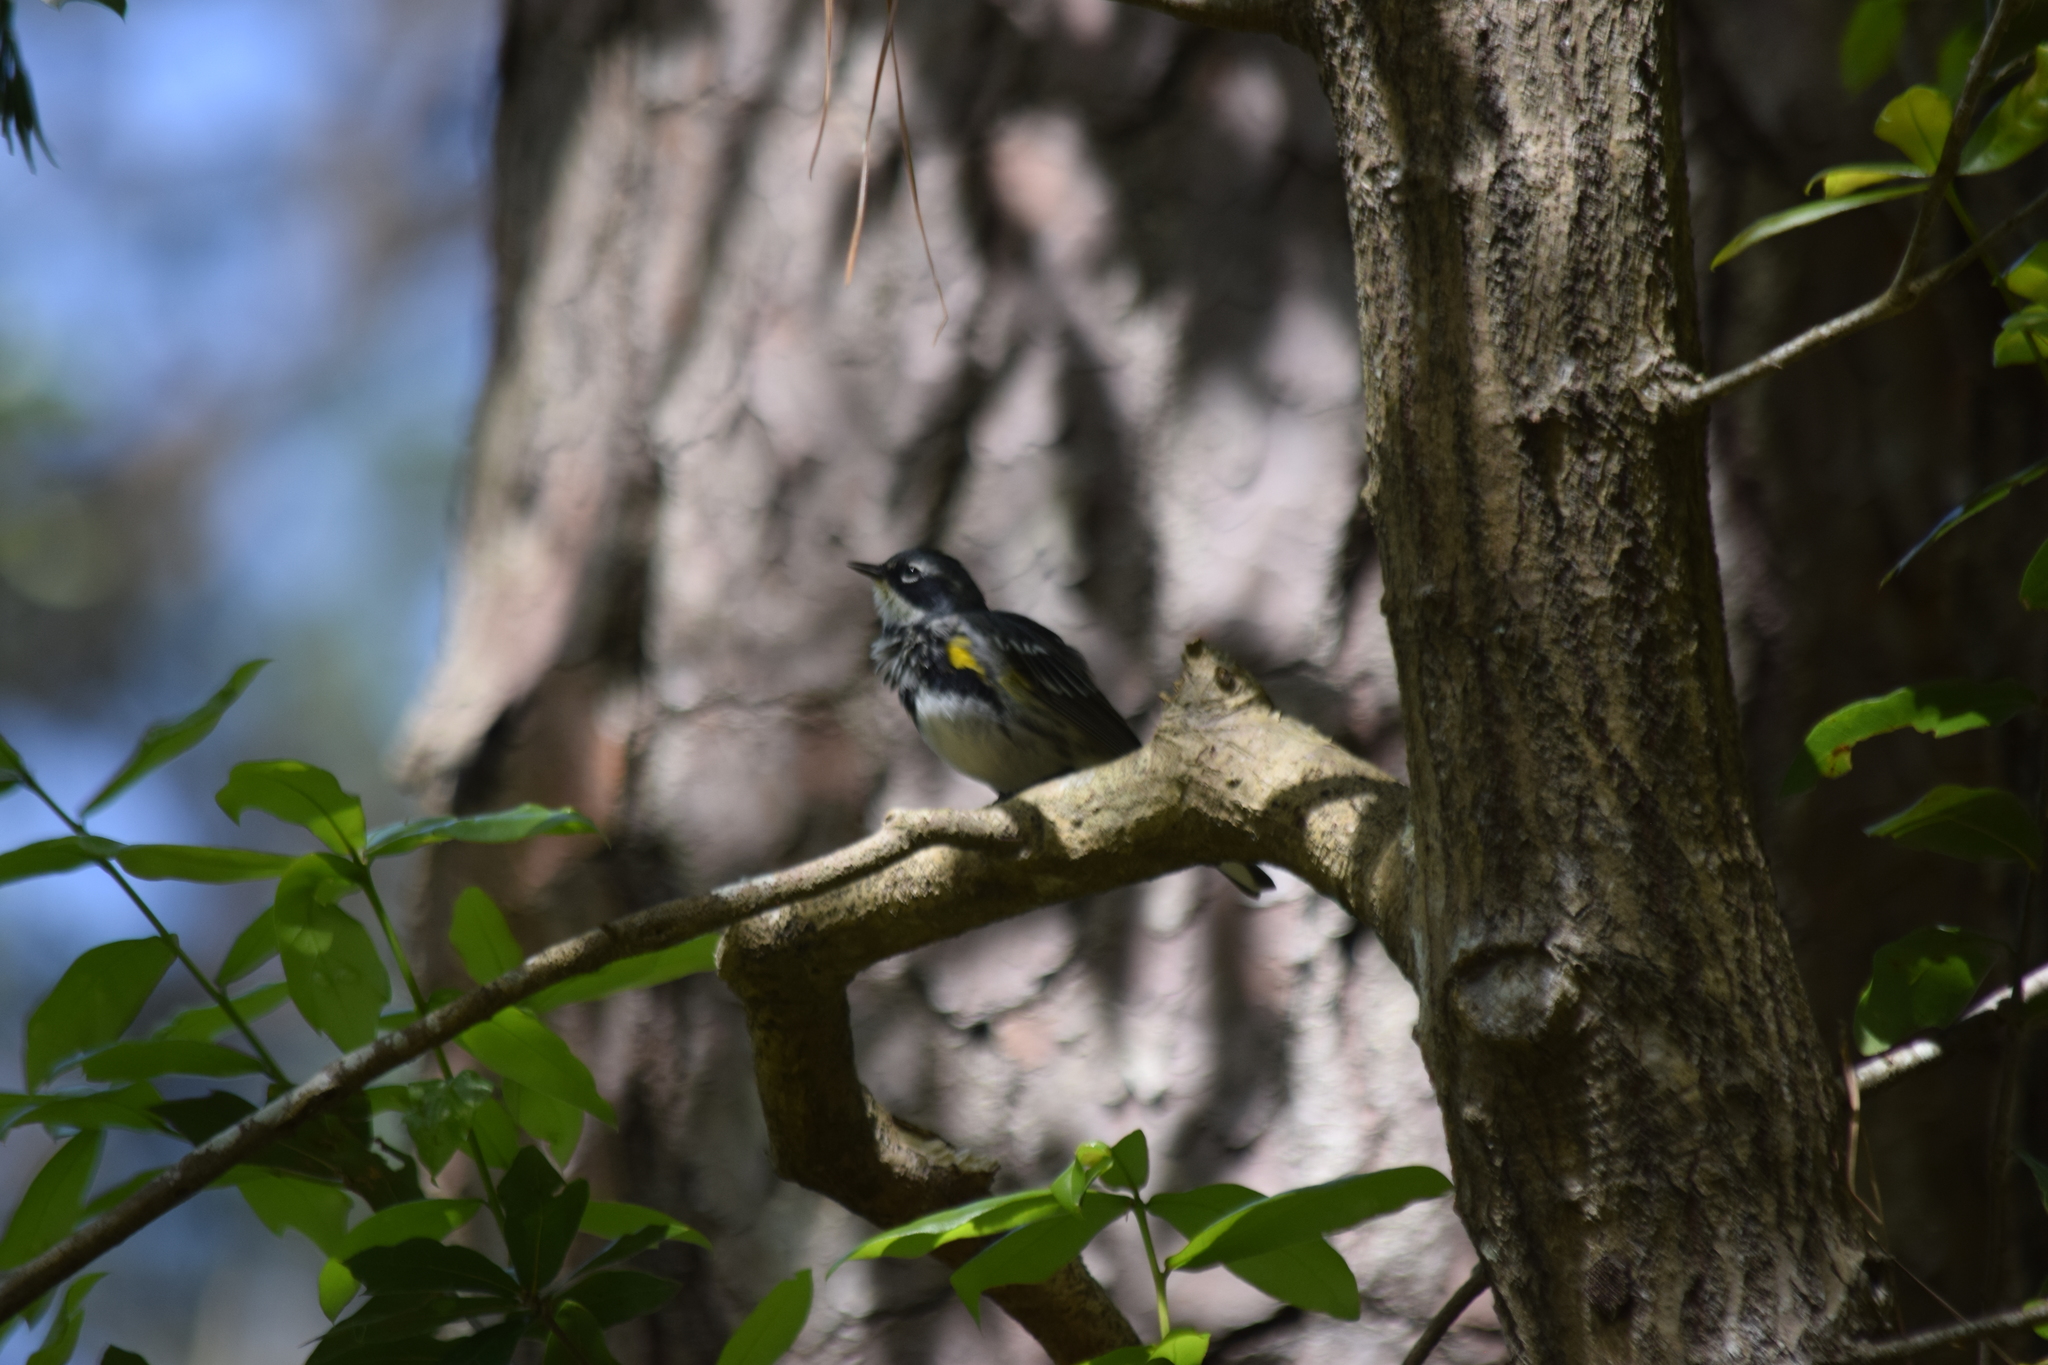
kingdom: Animalia
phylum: Chordata
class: Aves
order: Passeriformes
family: Parulidae
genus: Setophaga
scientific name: Setophaga coronata
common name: Myrtle warbler
